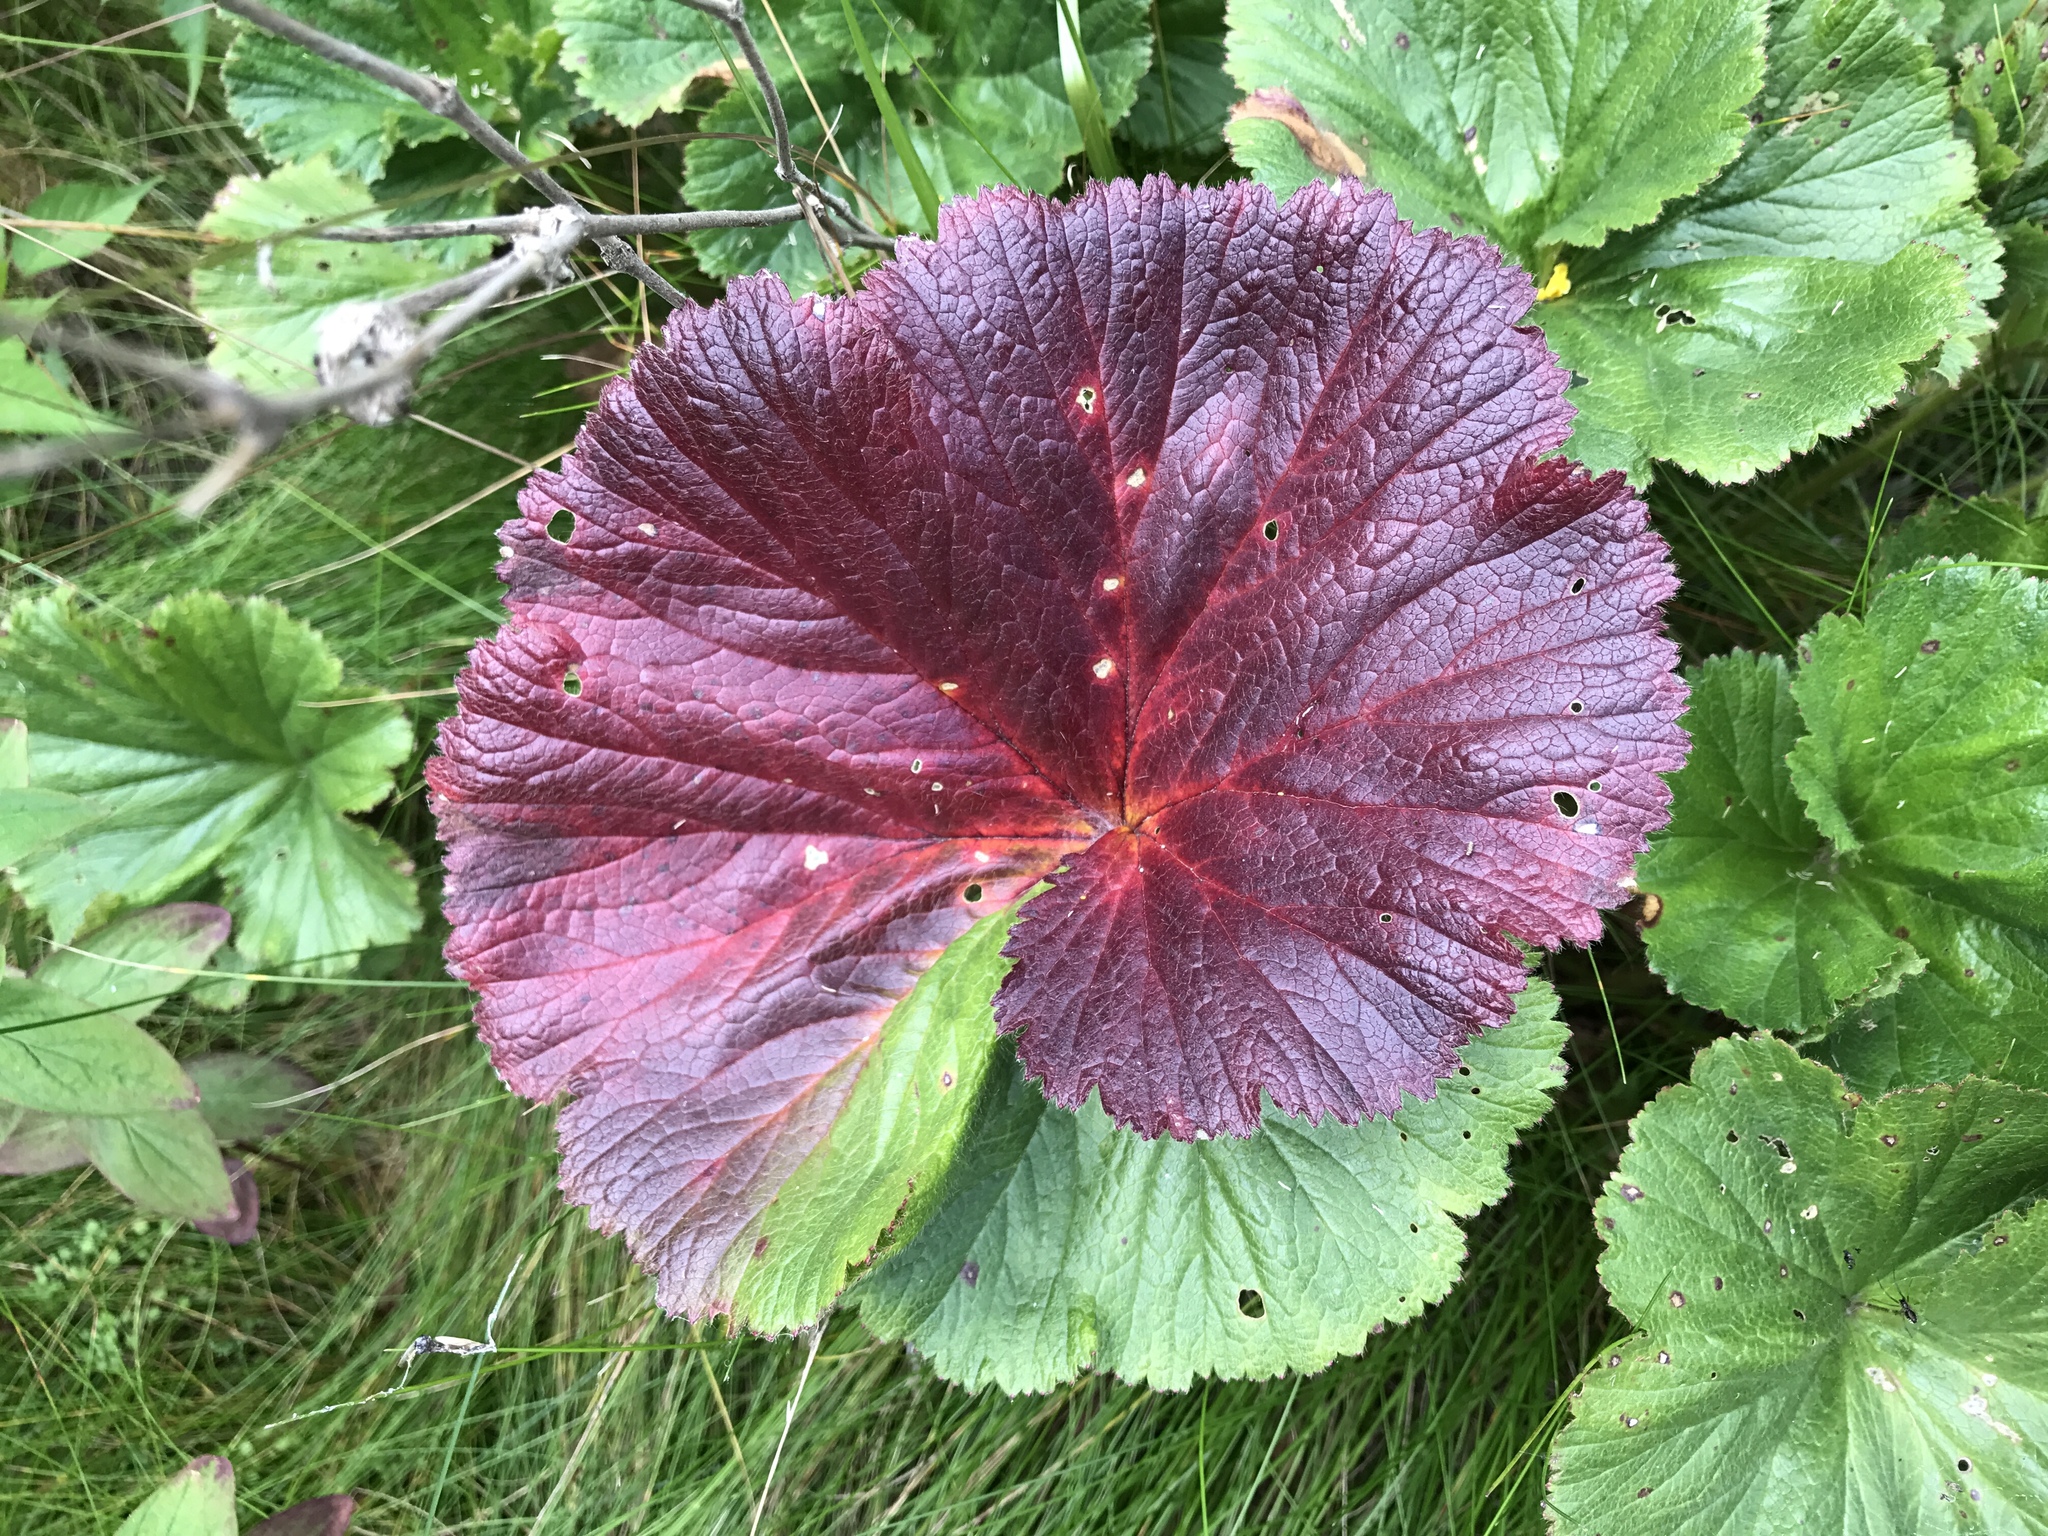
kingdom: Plantae
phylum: Tracheophyta
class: Magnoliopsida
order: Rosales
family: Rosaceae
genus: Geum
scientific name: Geum radiatum
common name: Spreaded avens
